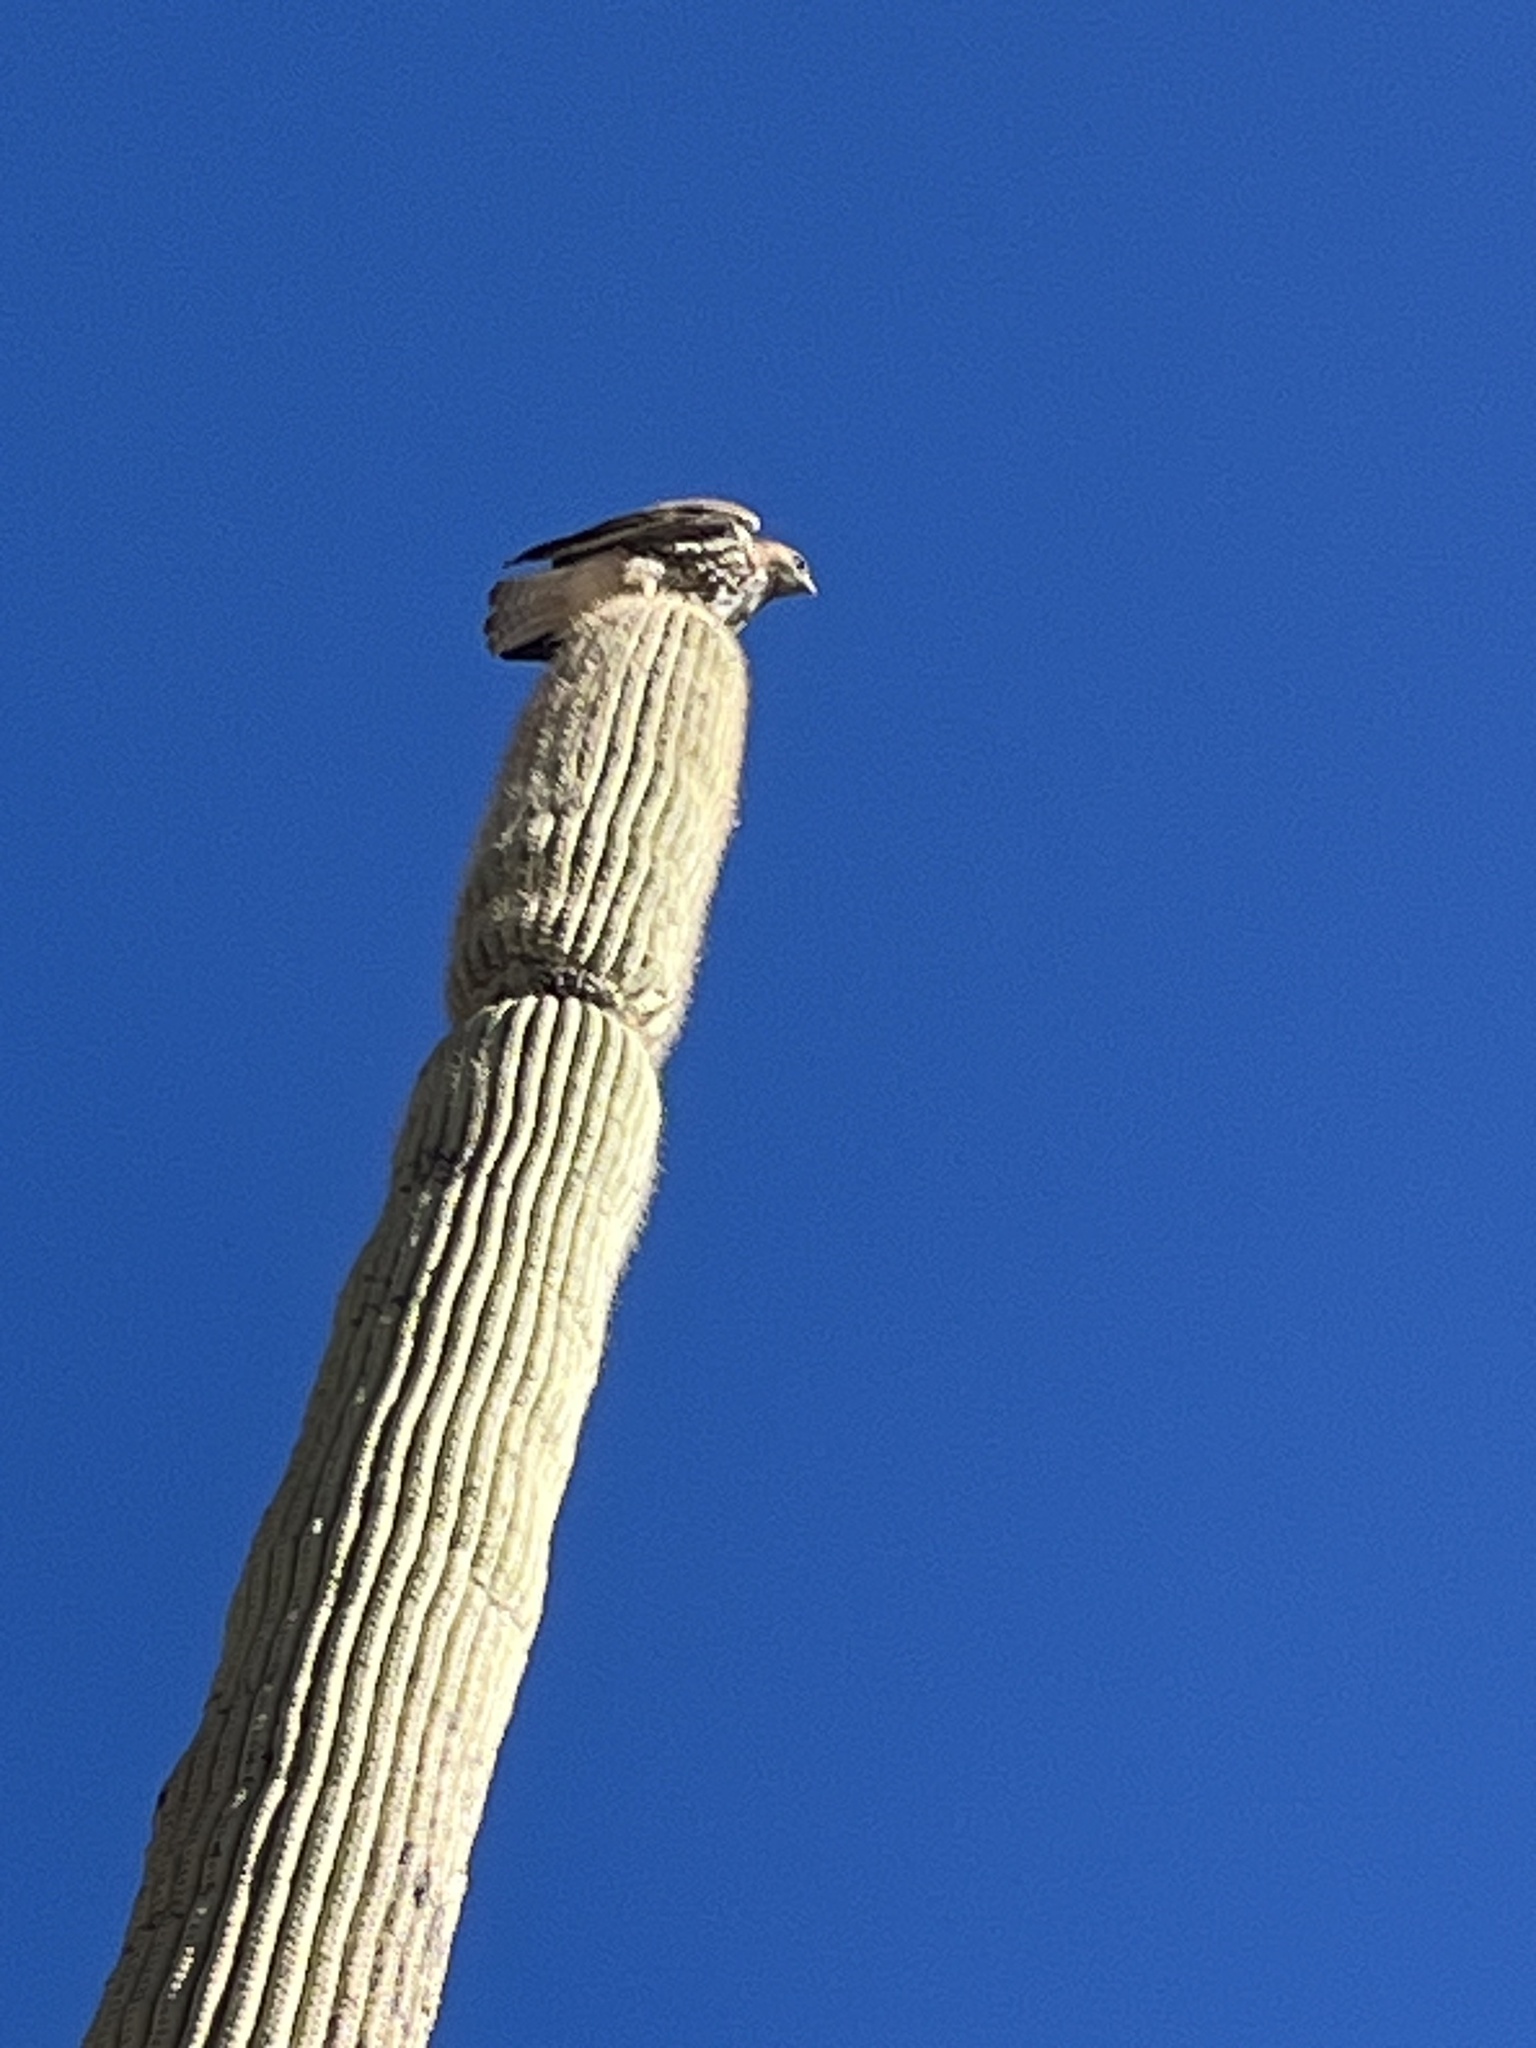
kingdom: Animalia
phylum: Chordata
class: Aves
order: Accipitriformes
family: Accipitridae
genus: Buteo
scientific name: Buteo jamaicensis
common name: Red-tailed hawk
